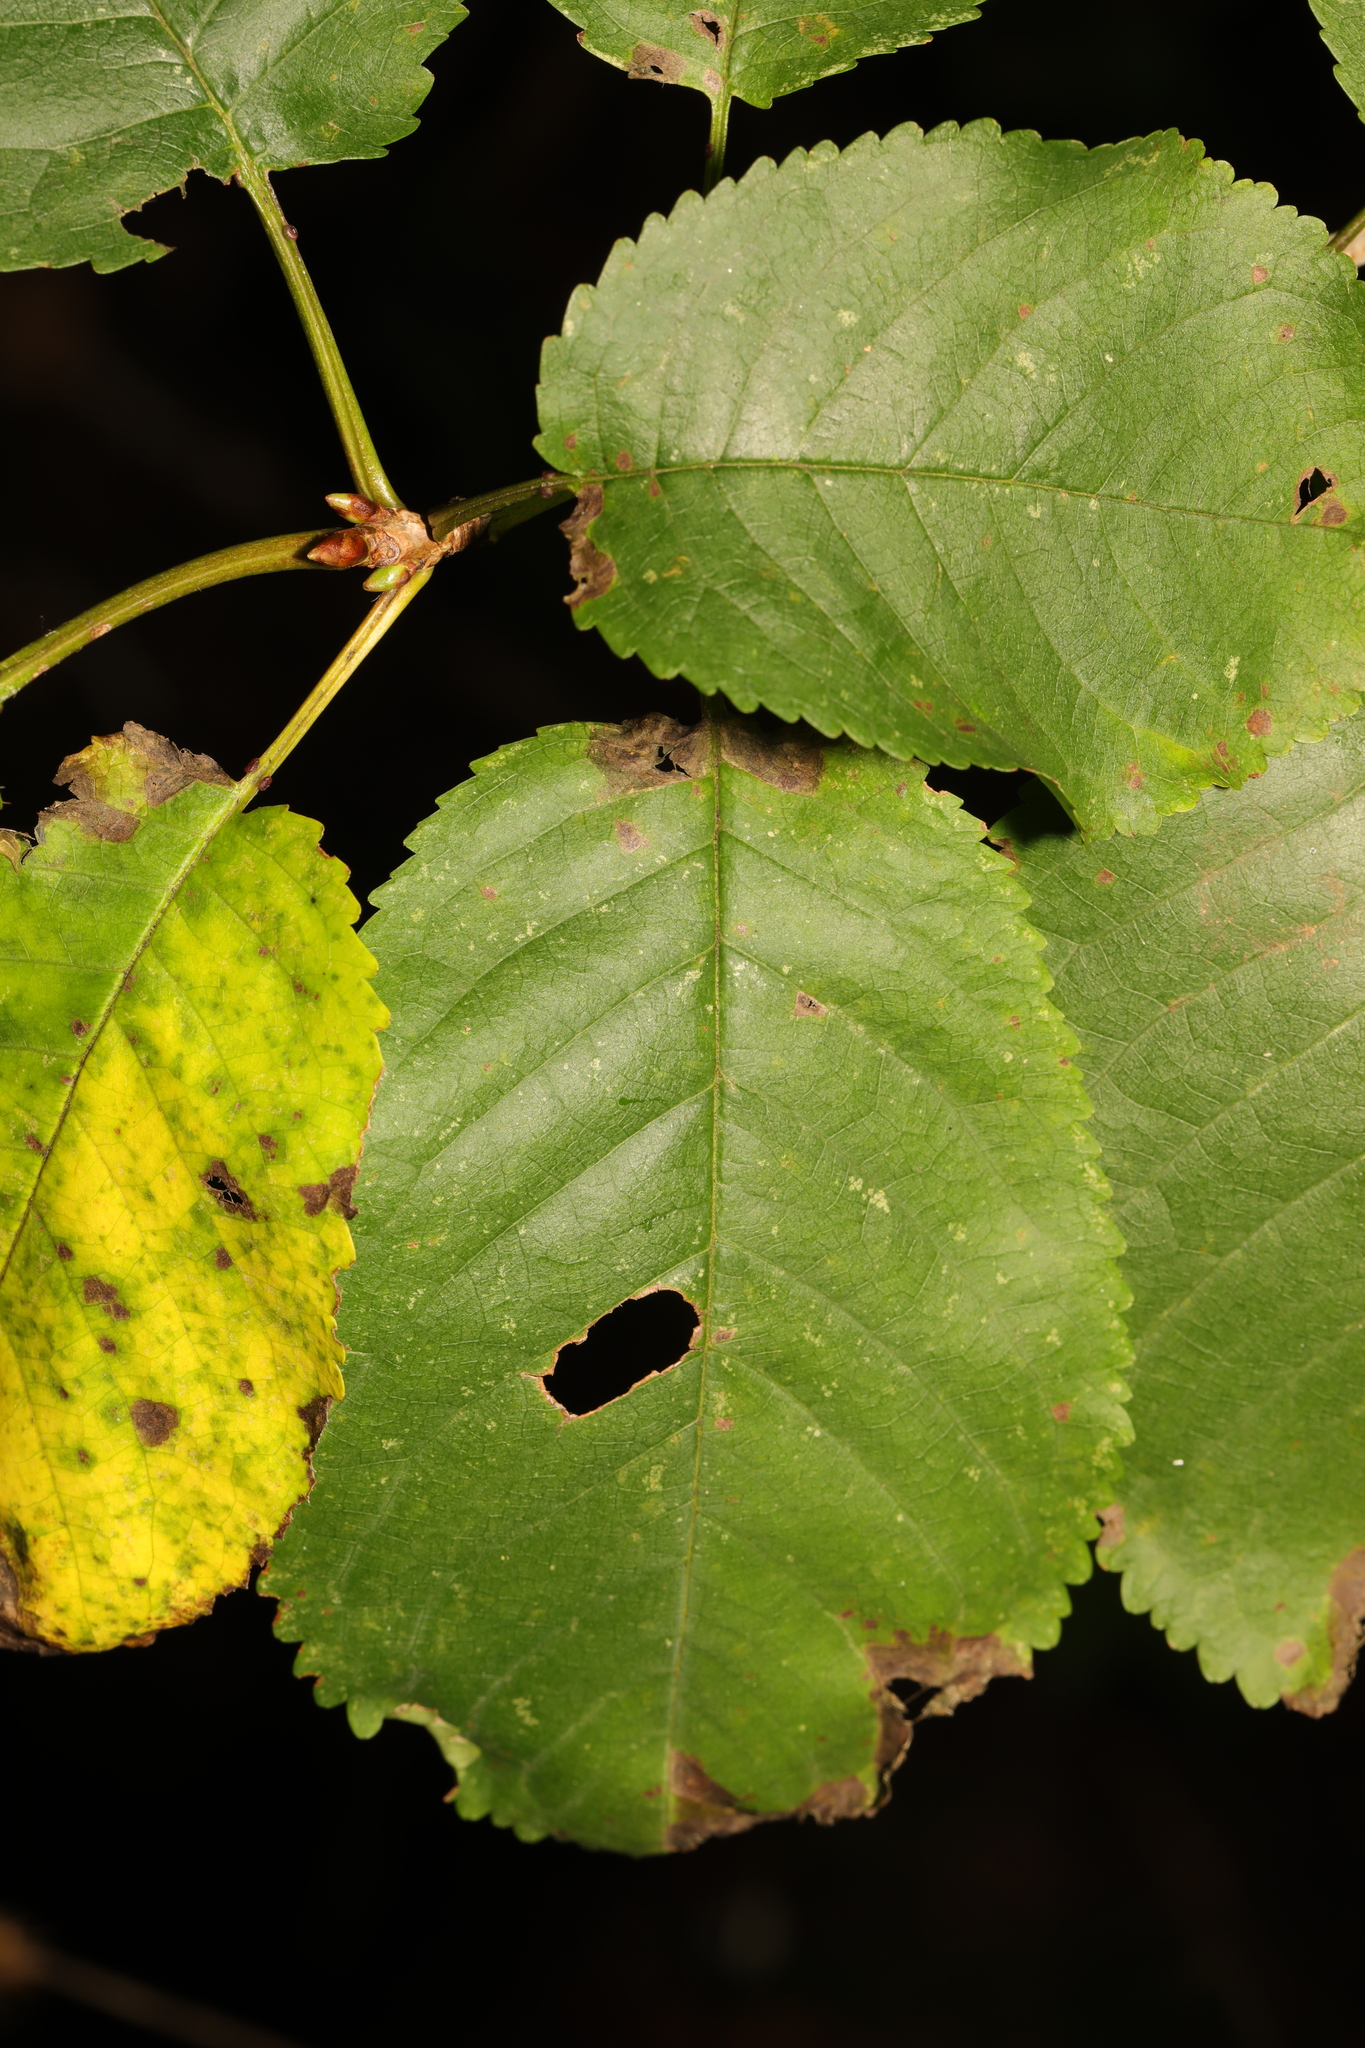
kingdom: Plantae
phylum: Tracheophyta
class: Magnoliopsida
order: Rosales
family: Rosaceae
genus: Prunus
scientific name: Prunus avium
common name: Sweet cherry
